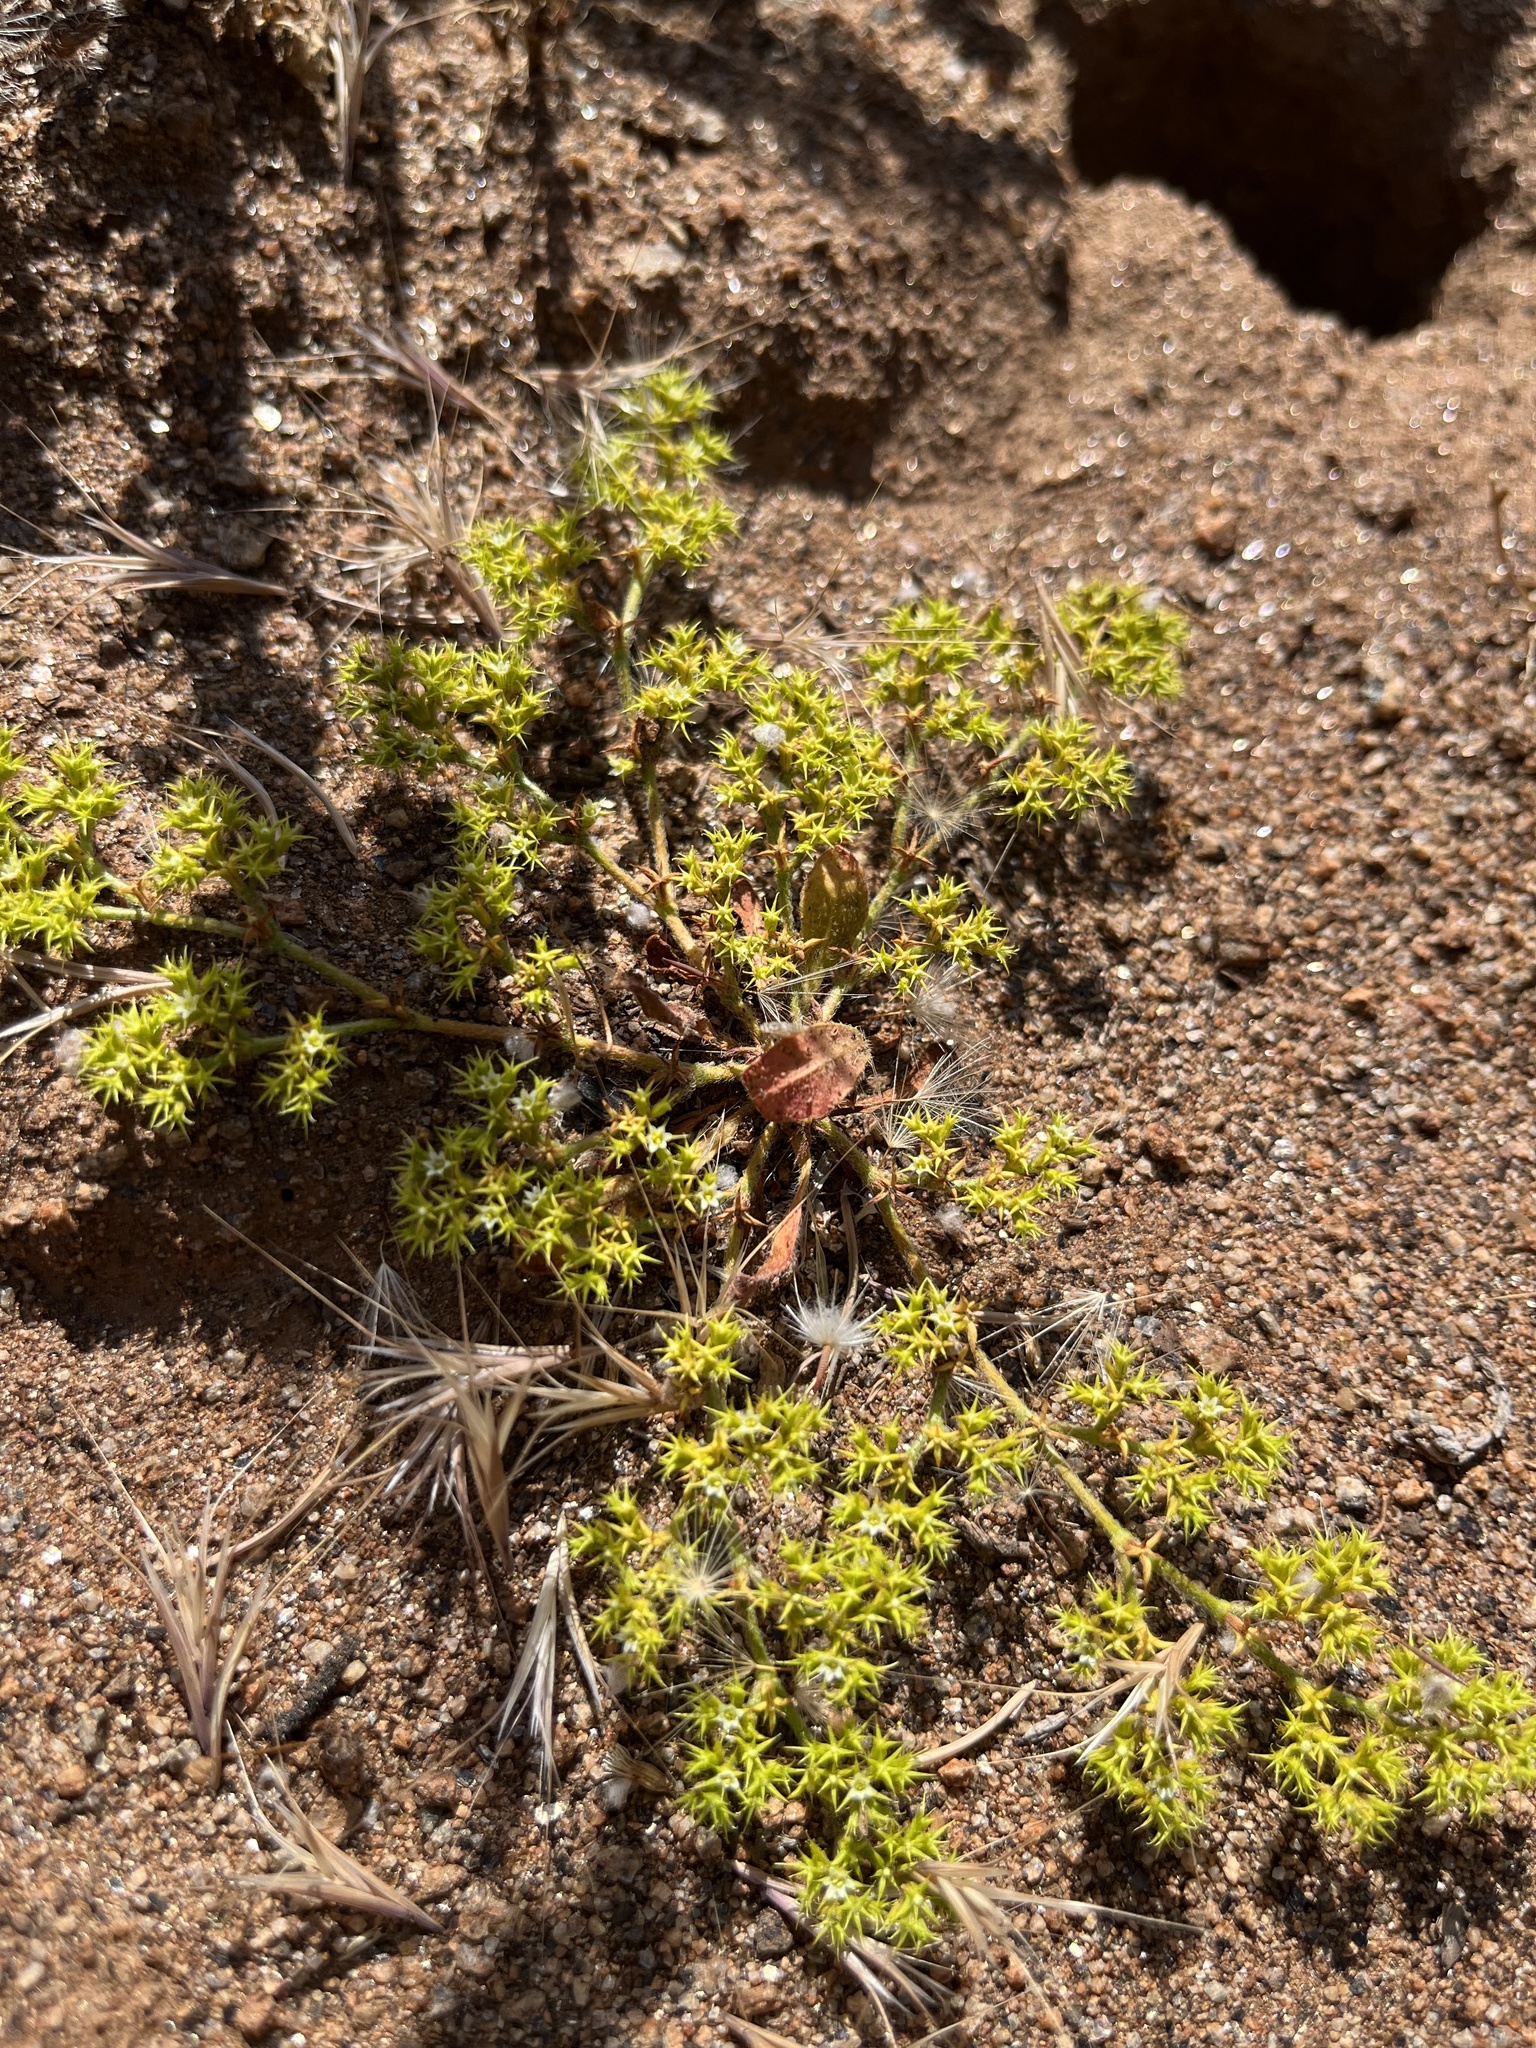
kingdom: Plantae
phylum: Tracheophyta
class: Magnoliopsida
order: Caryophyllales
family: Polygonaceae
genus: Chorizanthe
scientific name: Chorizanthe procumbens
